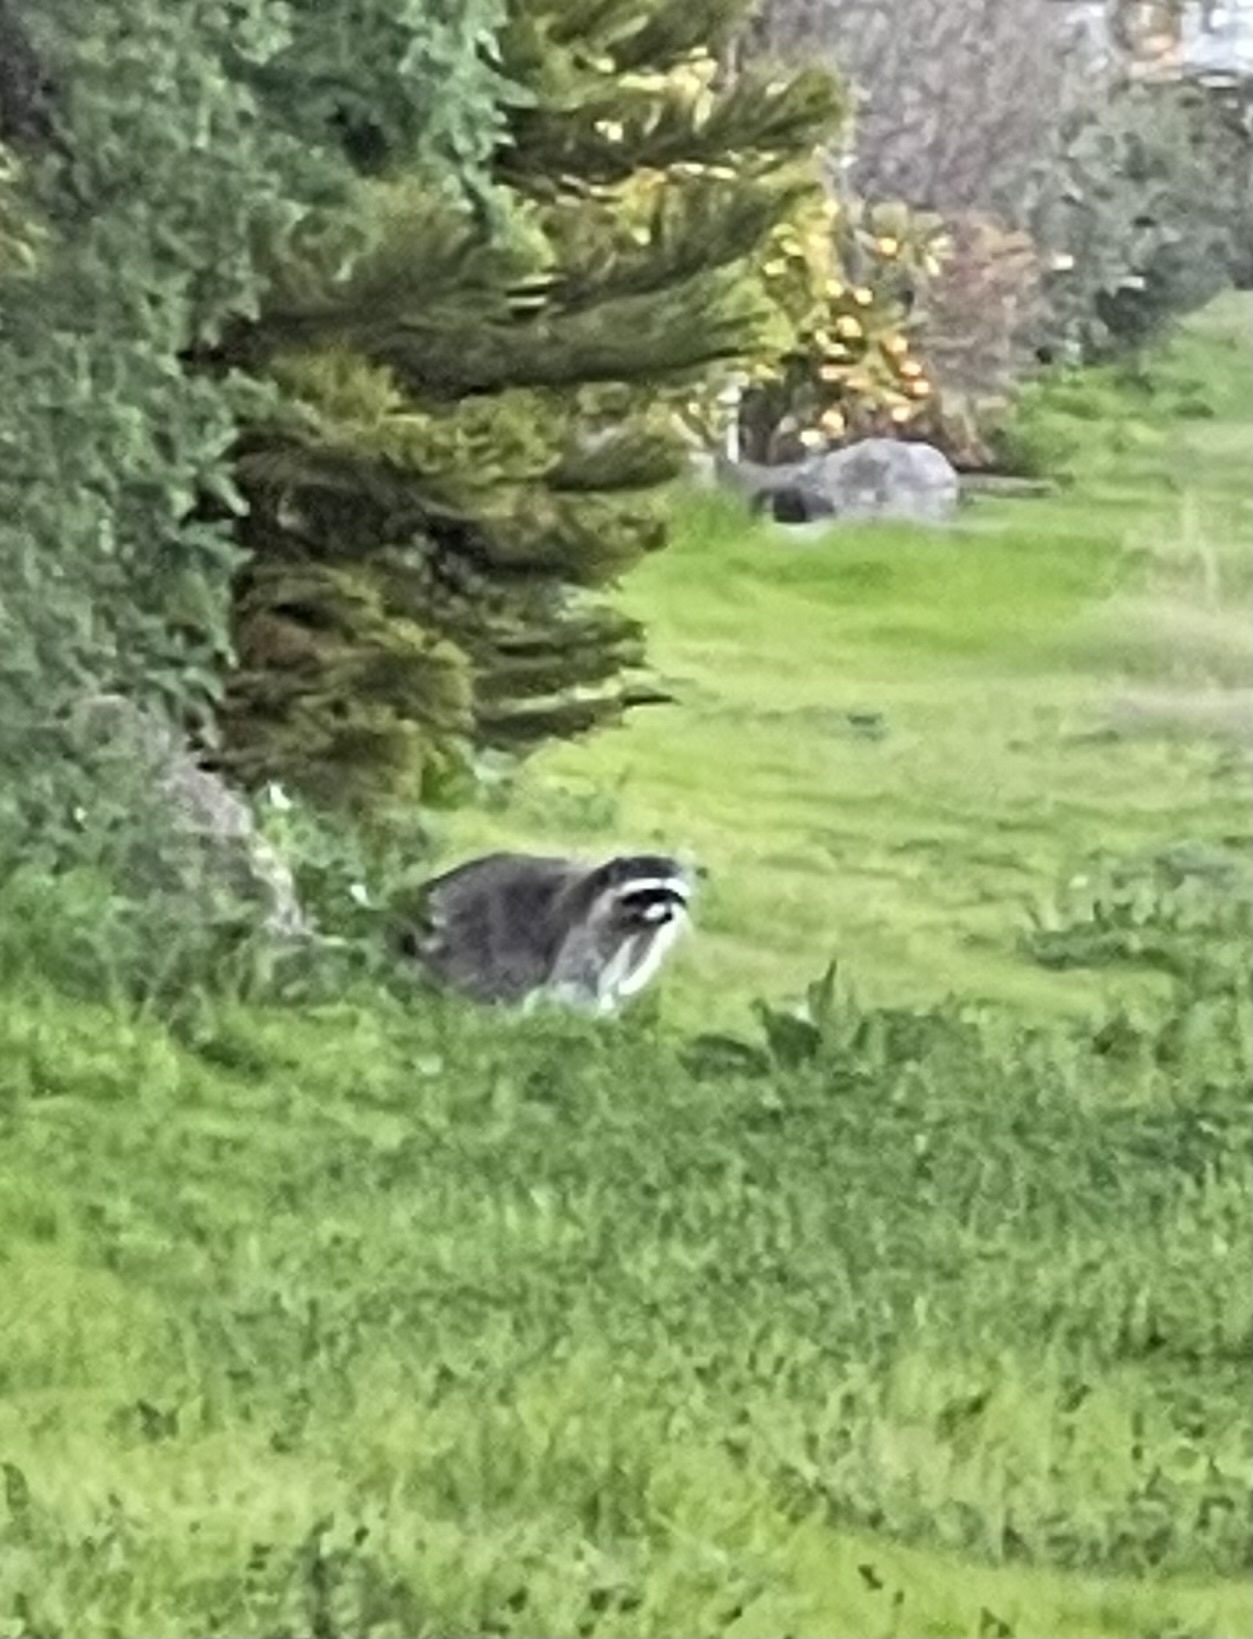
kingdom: Animalia
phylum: Chordata
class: Mammalia
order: Carnivora
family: Procyonidae
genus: Procyon
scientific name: Procyon lotor
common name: Raccoon
